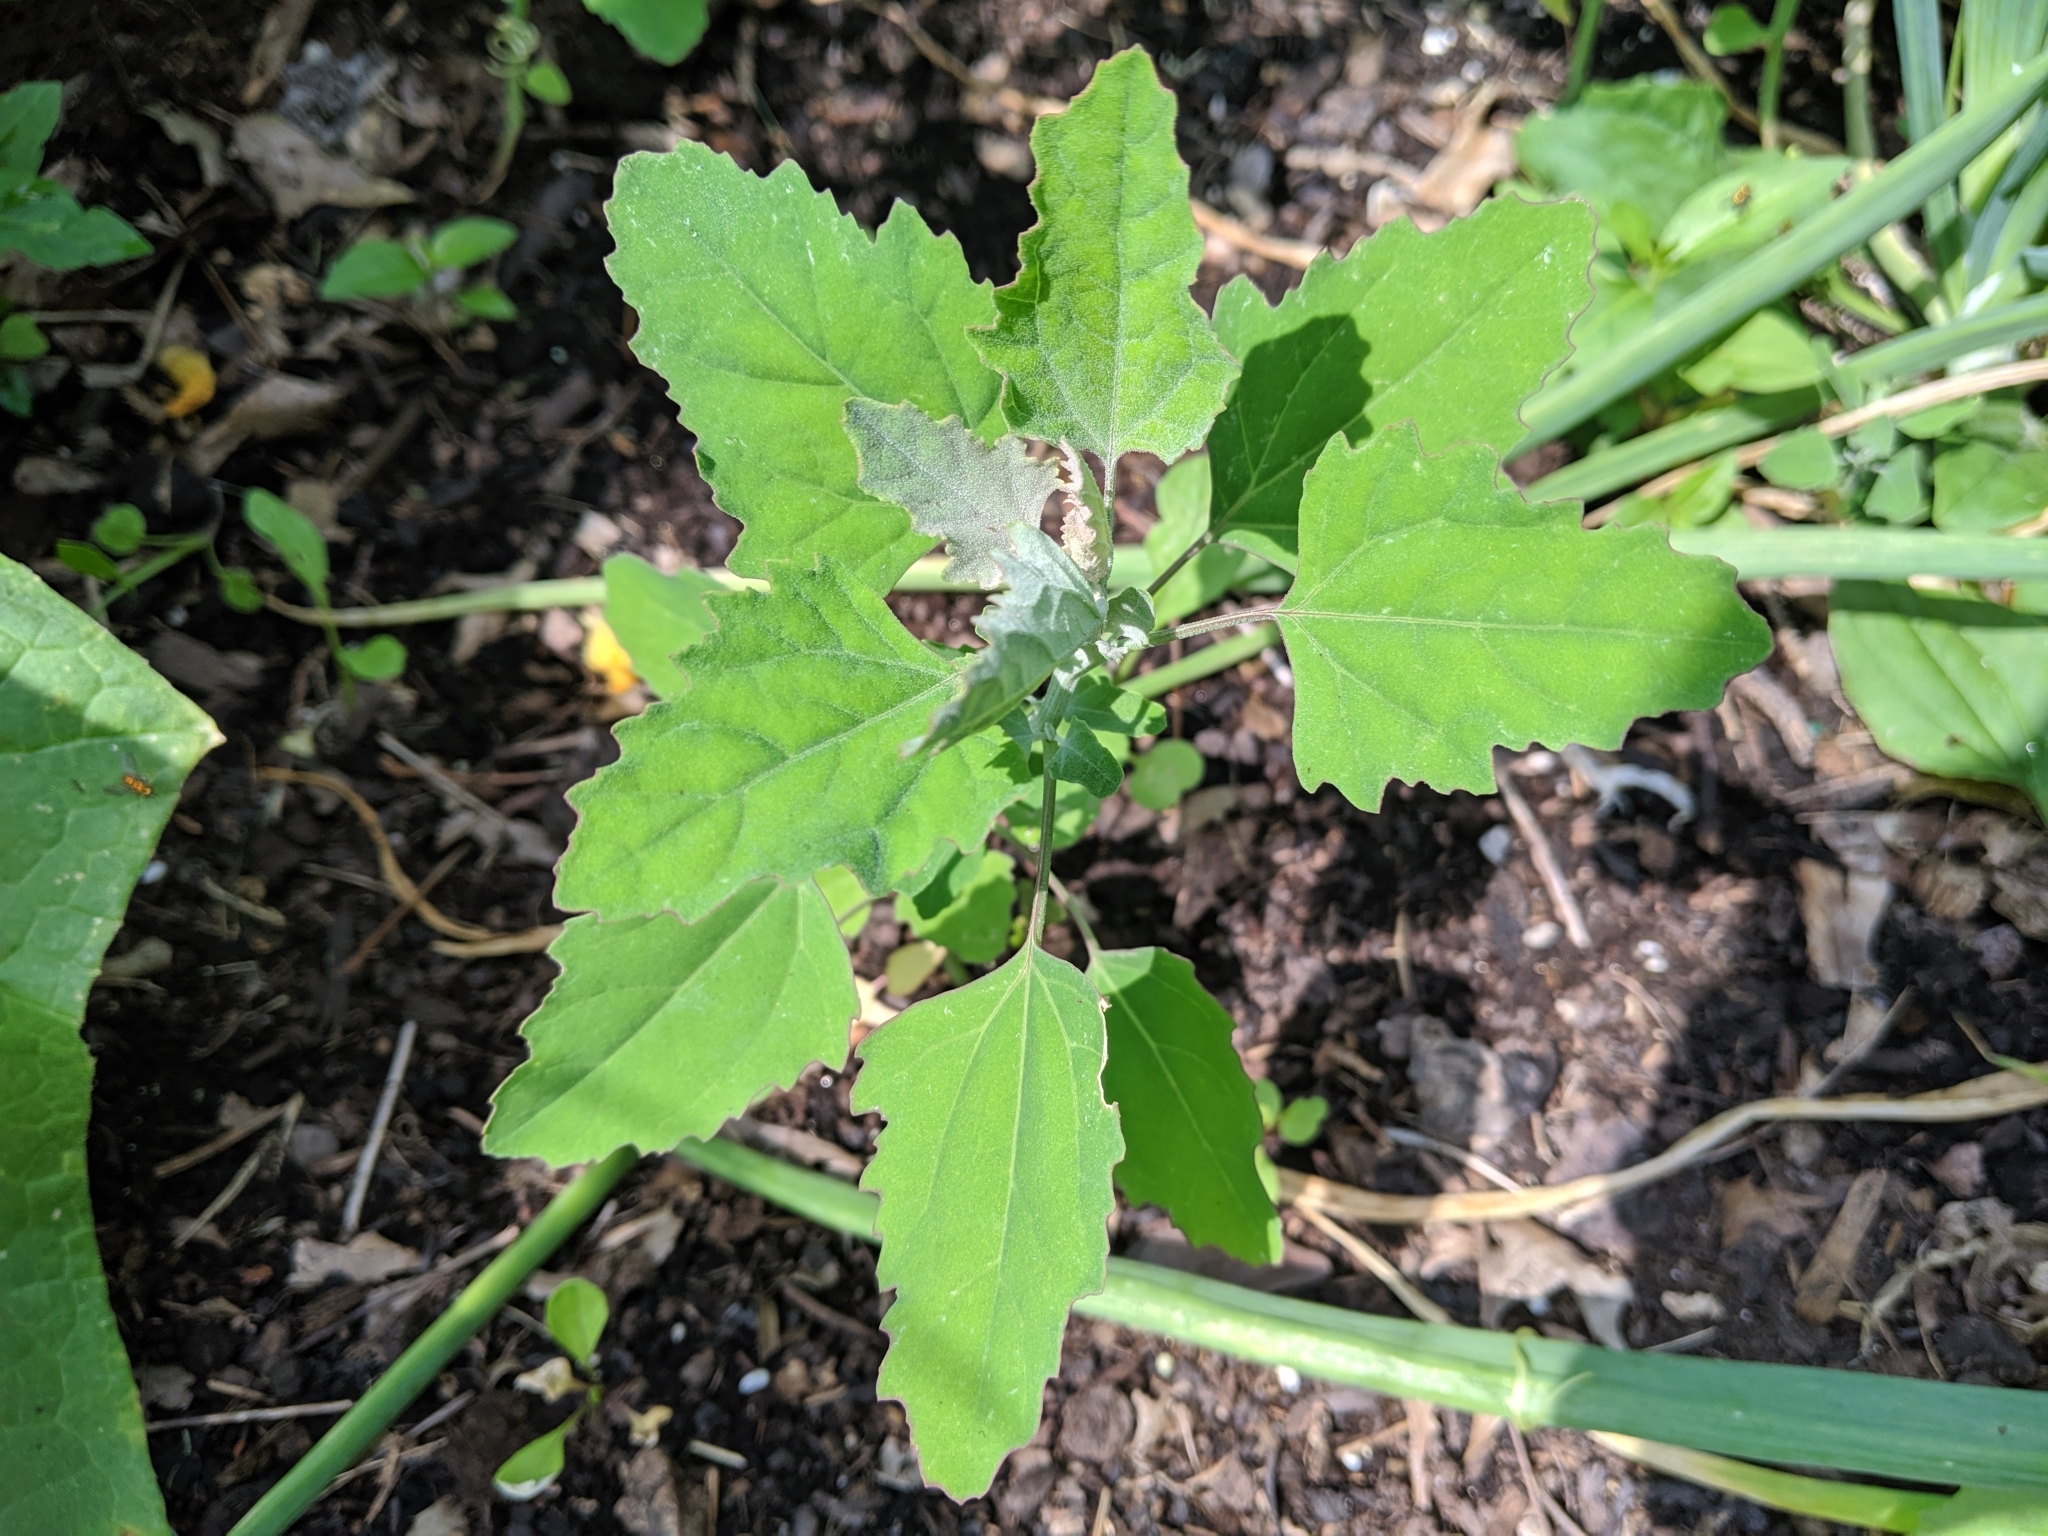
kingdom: Plantae
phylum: Tracheophyta
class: Magnoliopsida
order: Caryophyllales
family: Amaranthaceae
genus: Chenopodium
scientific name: Chenopodium album
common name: Fat-hen
